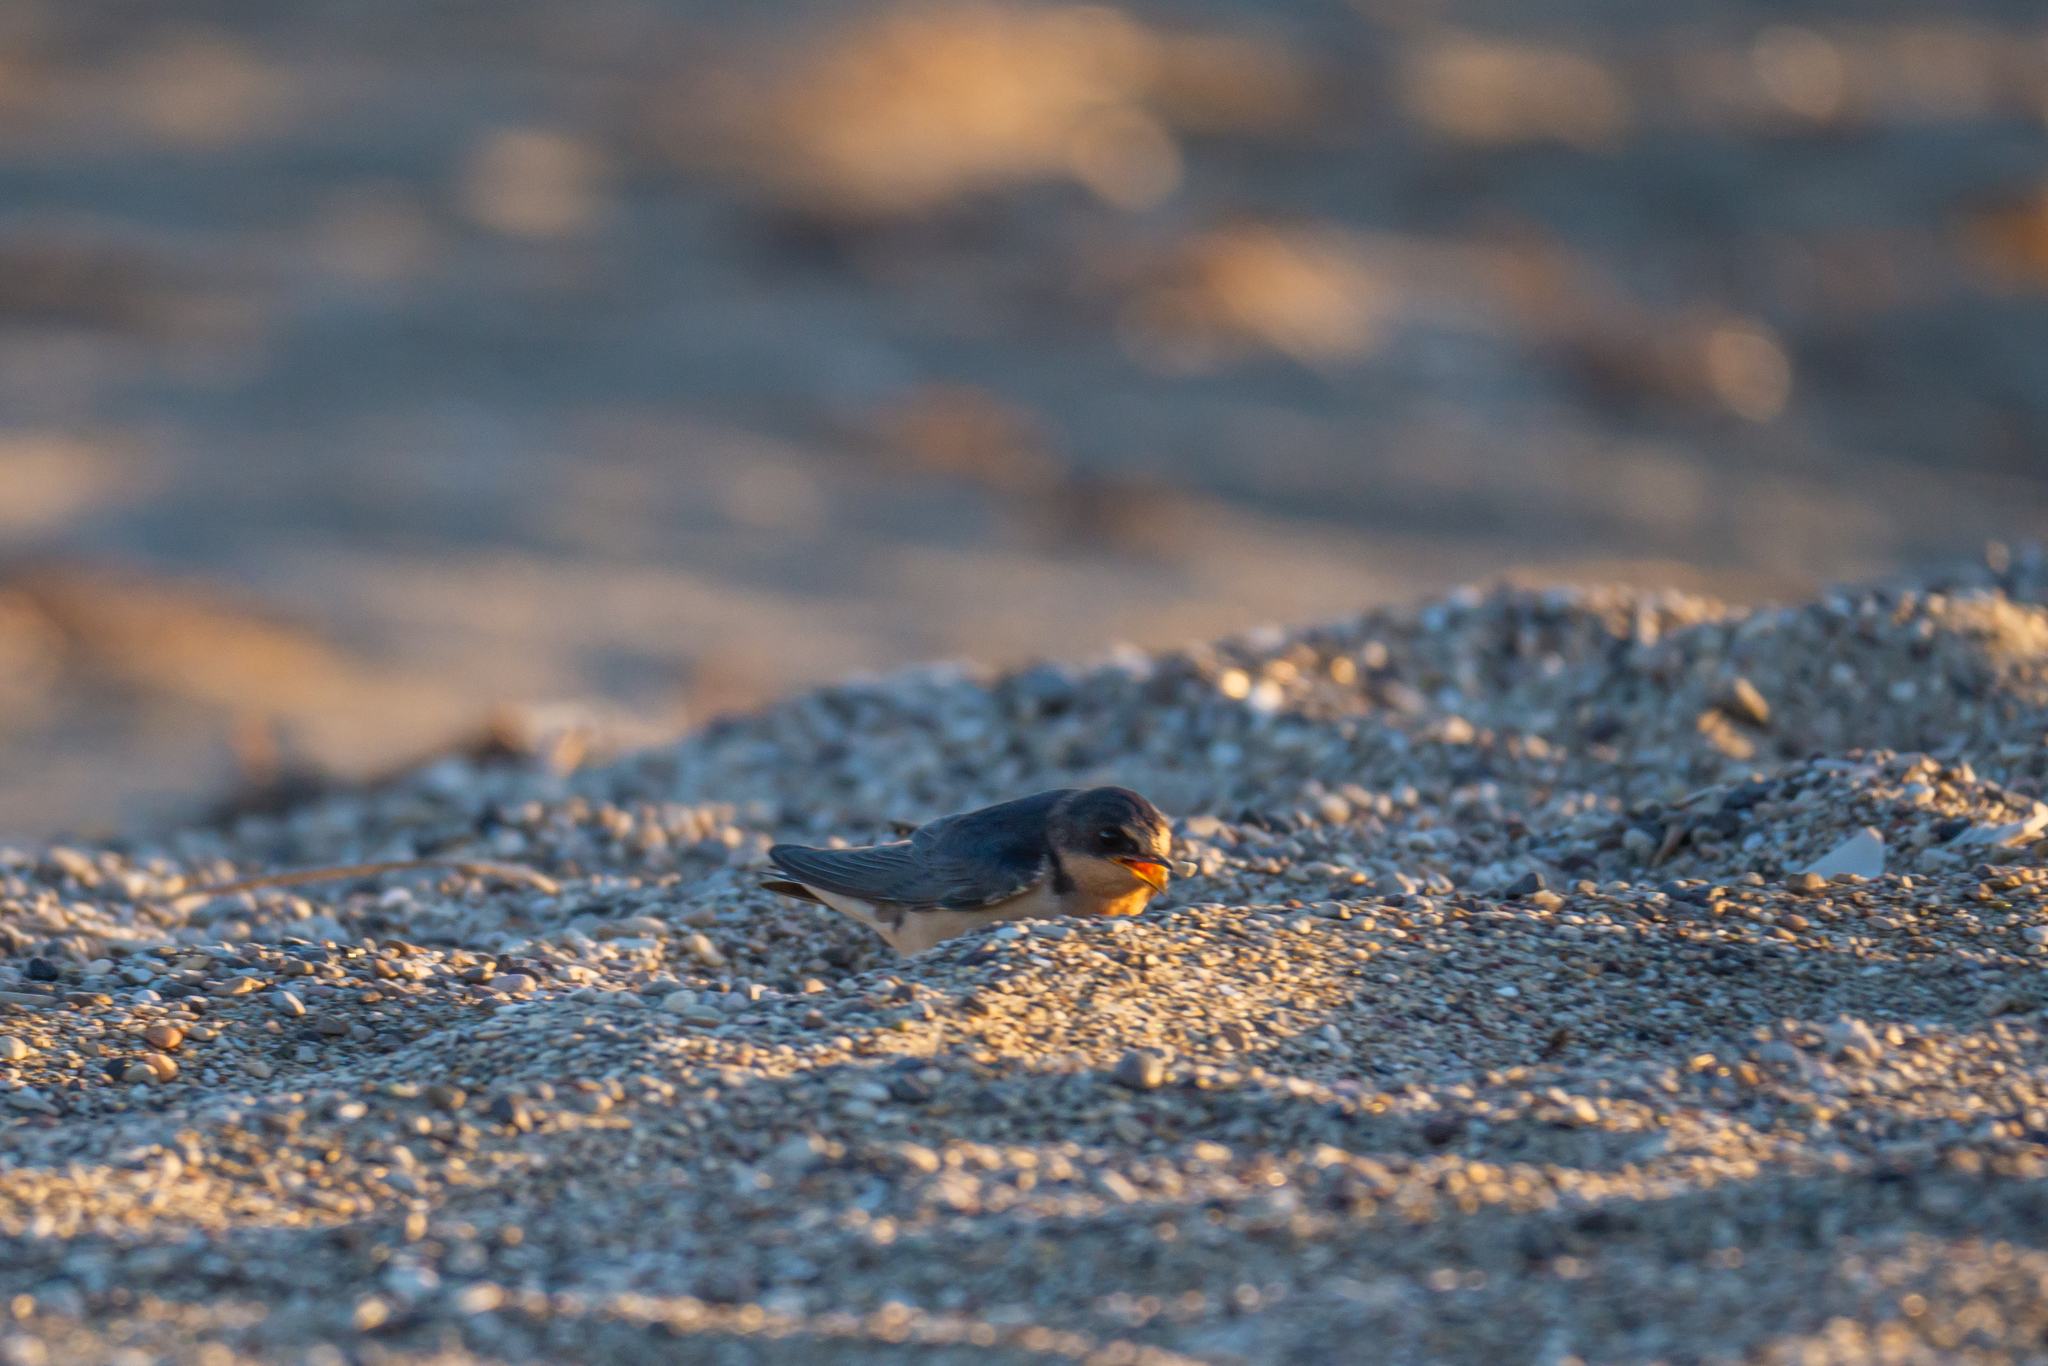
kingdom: Animalia
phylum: Chordata
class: Aves
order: Passeriformes
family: Hirundinidae
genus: Hirundo
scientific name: Hirundo rustica
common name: Barn swallow
